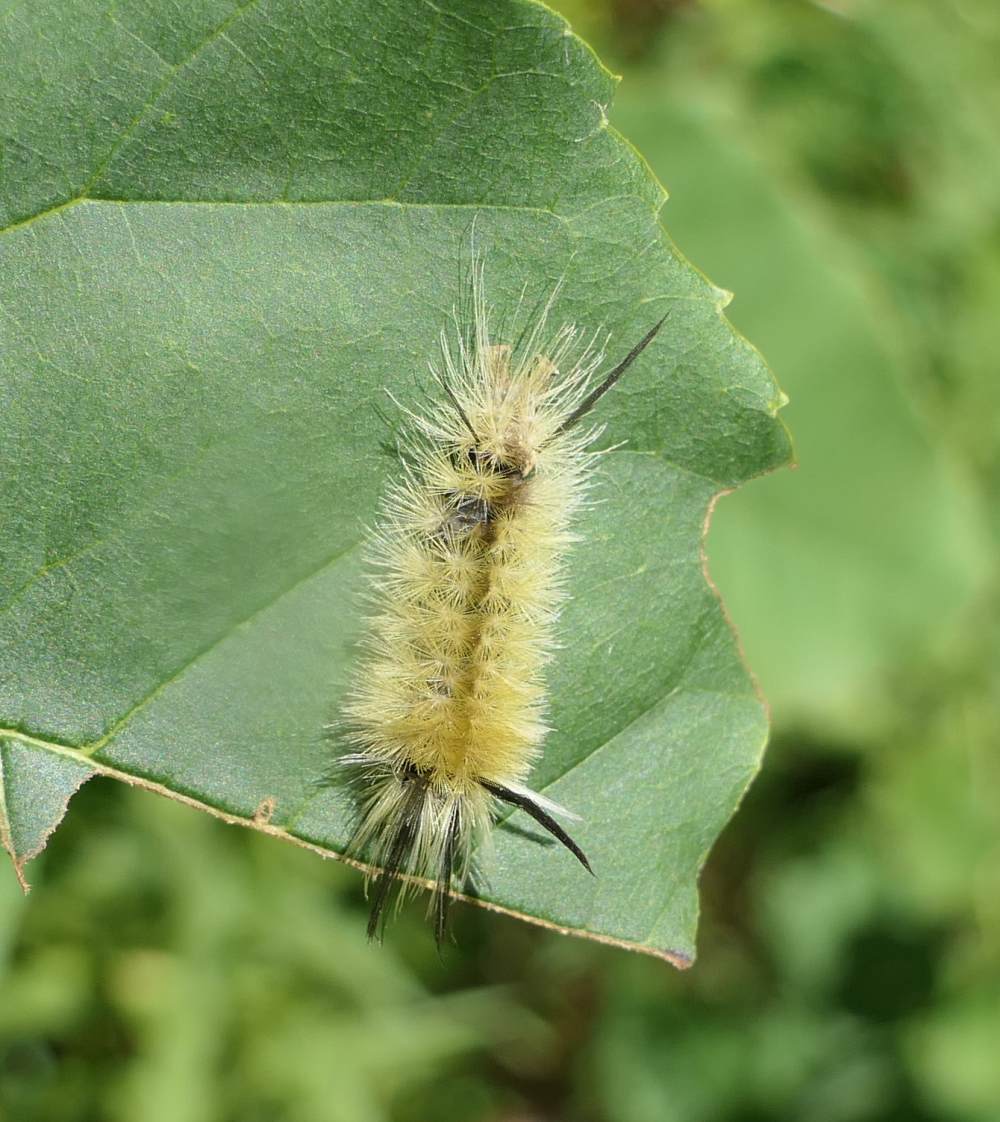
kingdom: Animalia
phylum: Arthropoda
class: Insecta
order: Lepidoptera
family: Erebidae
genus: Halysidota
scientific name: Halysidota tessellaris
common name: Banded tussock moth
